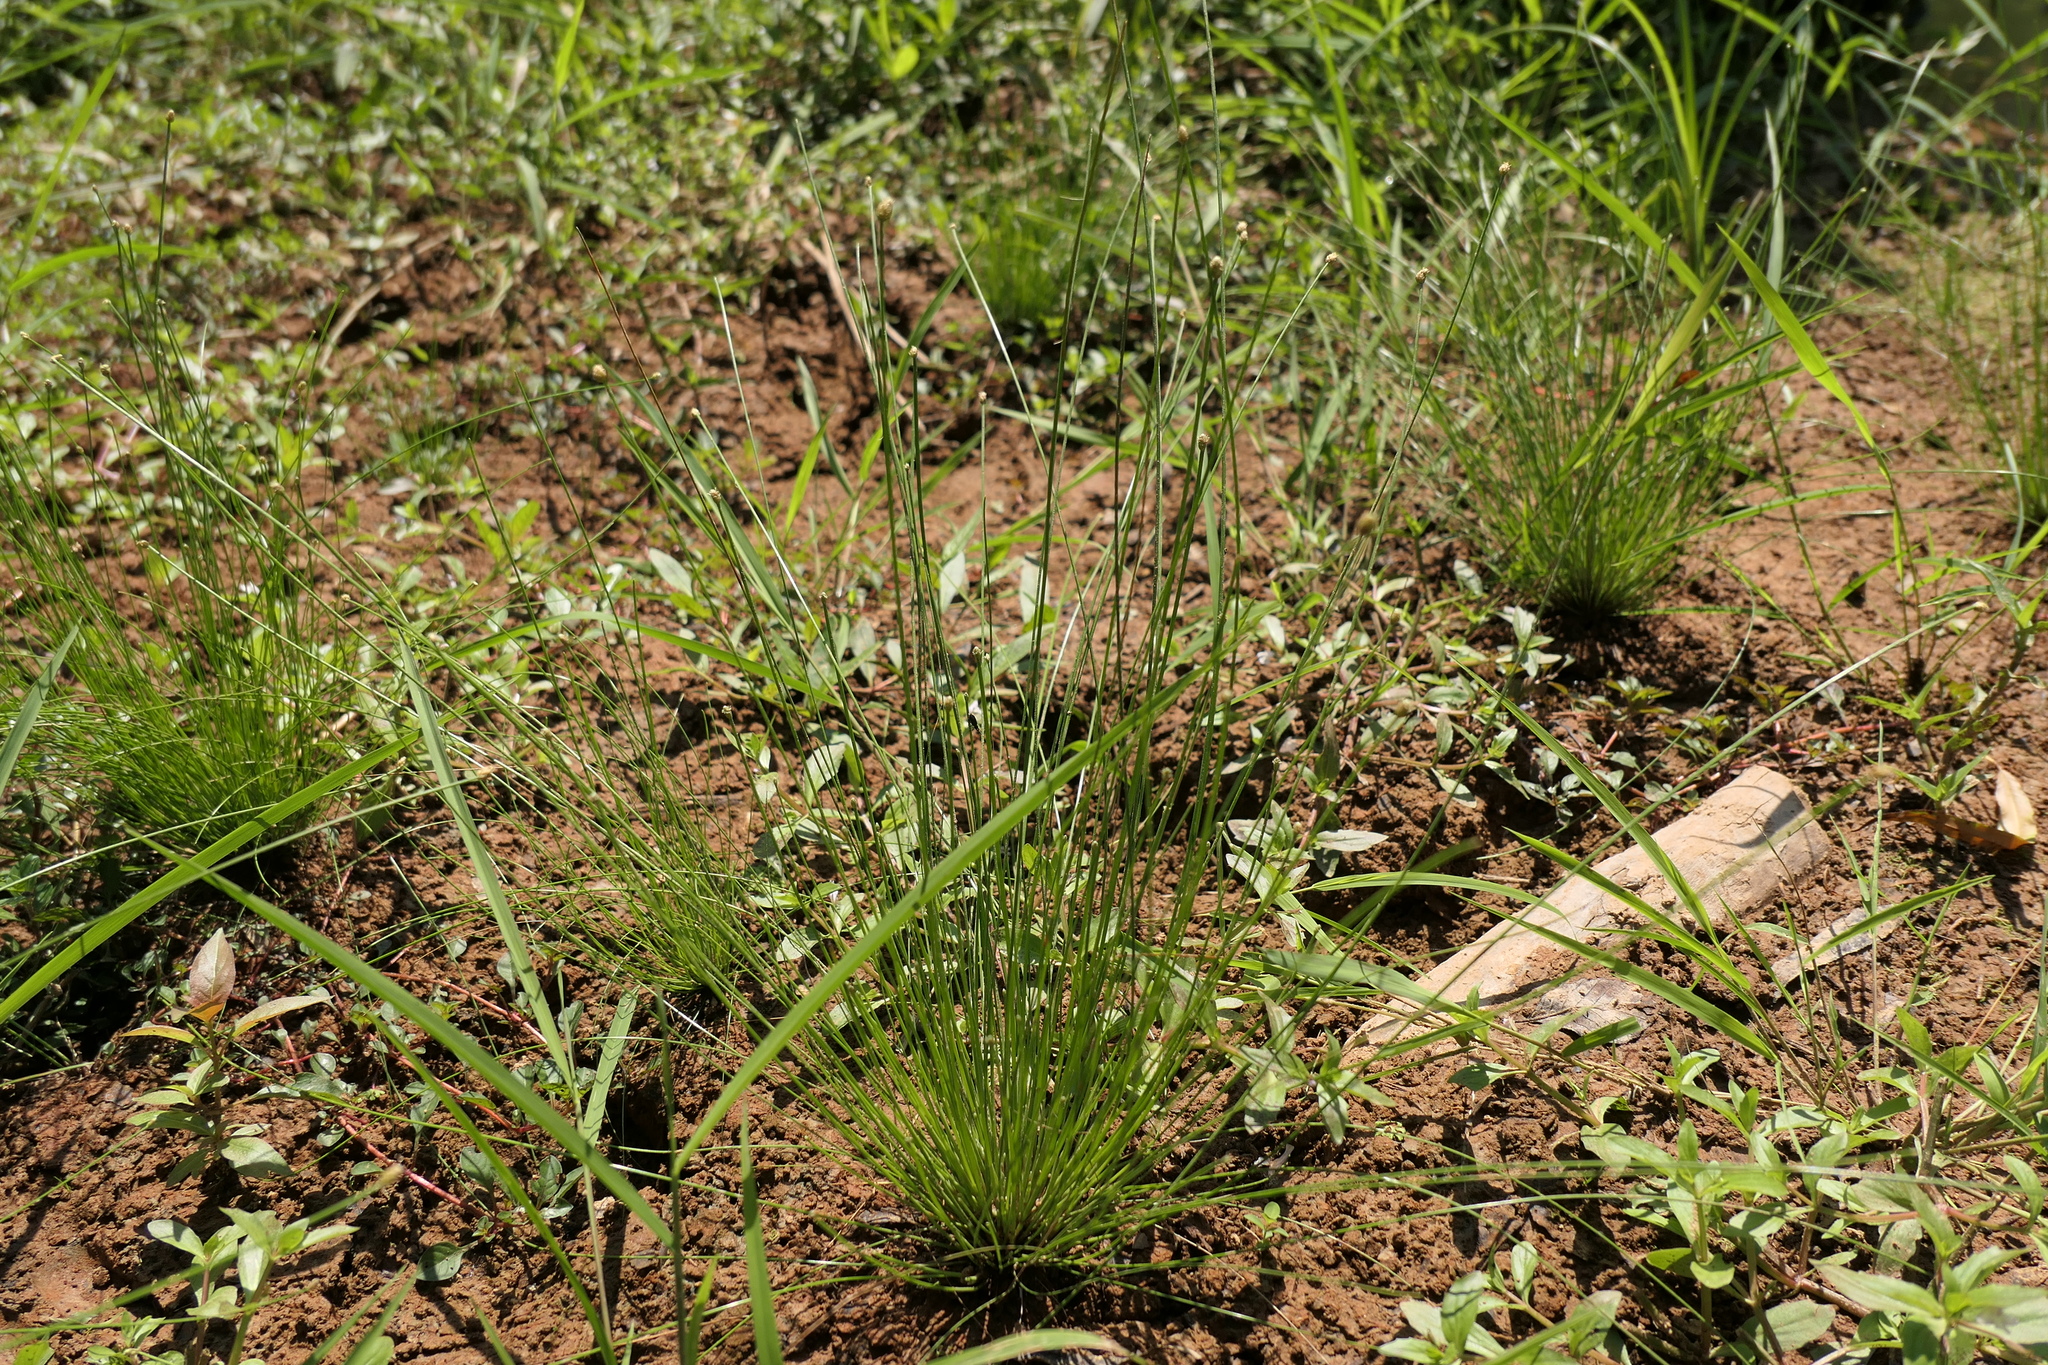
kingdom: Plantae
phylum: Tracheophyta
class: Liliopsida
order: Poales
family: Cyperaceae
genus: Eleocharis
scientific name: Eleocharis obtusa
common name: Blunt spikerush
